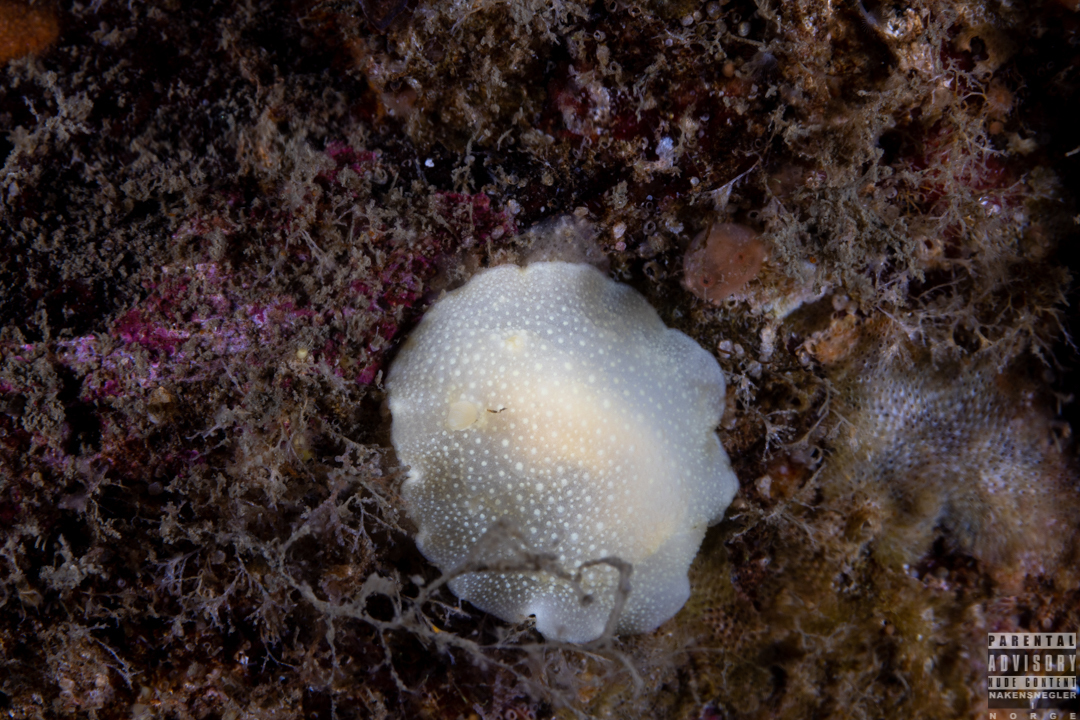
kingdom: Animalia
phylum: Mollusca
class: Gastropoda
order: Nudibranchia
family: Cadlinidae
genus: Cadlina
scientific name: Cadlina laevis
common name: White atlantic cadlina
